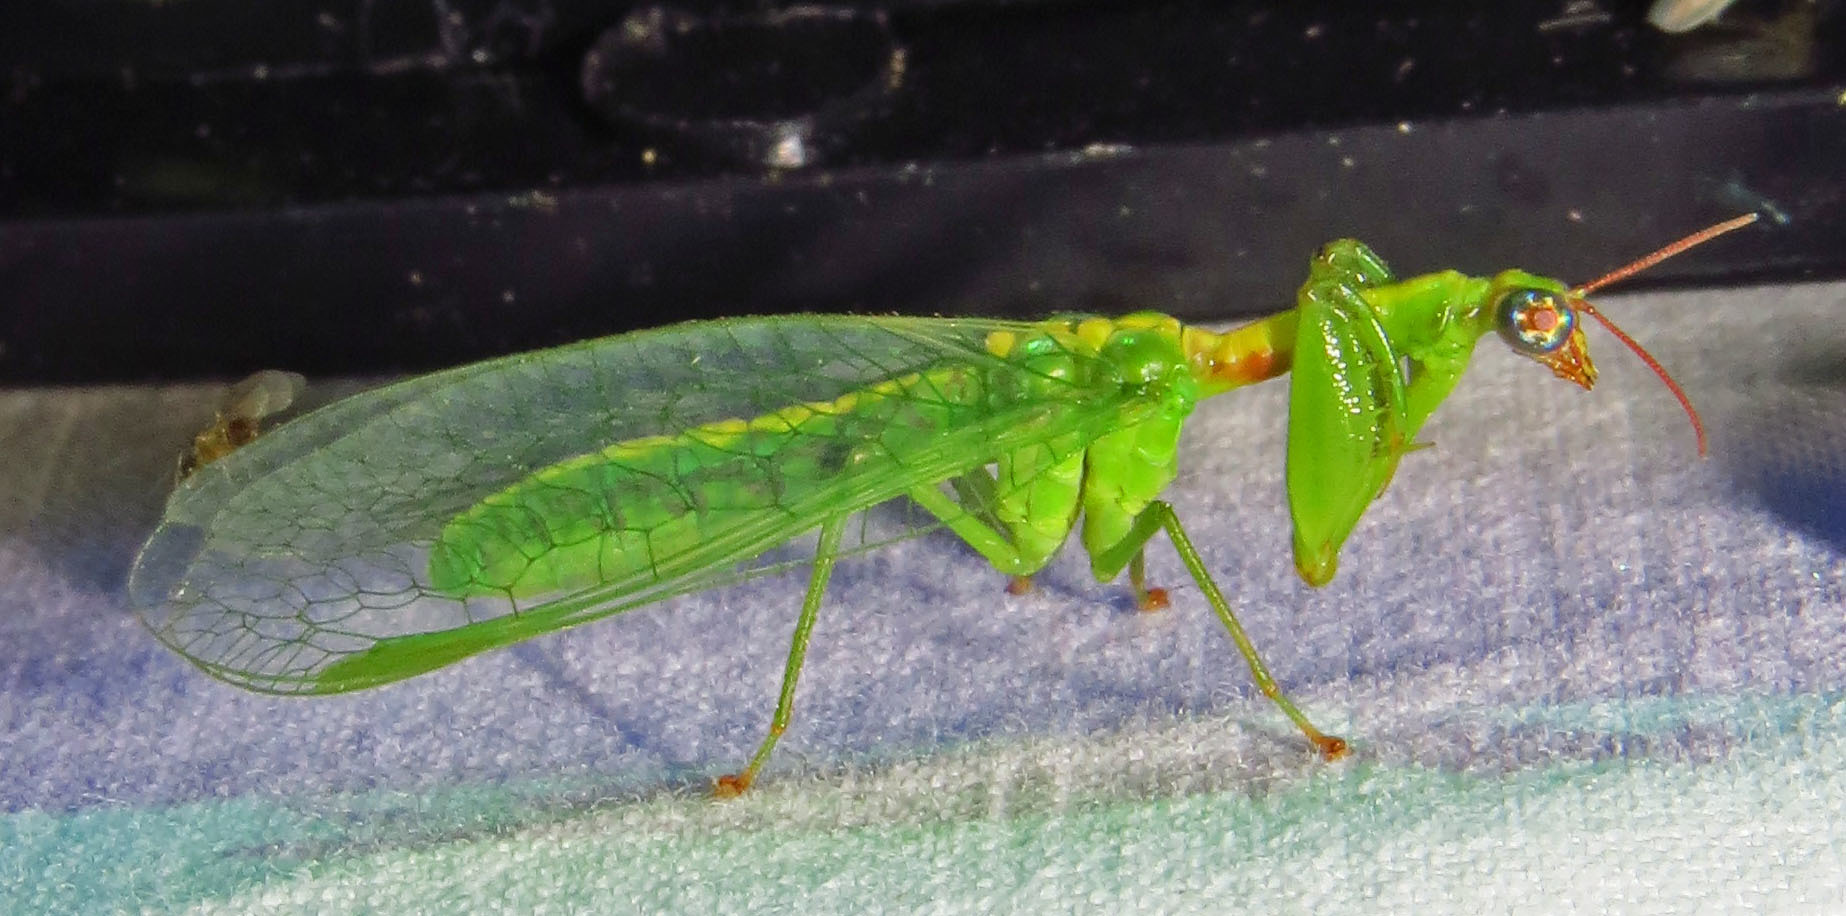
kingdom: Animalia
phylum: Arthropoda
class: Insecta
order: Neuroptera
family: Mantispidae
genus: Zeugomantispa
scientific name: Zeugomantispa minuta
